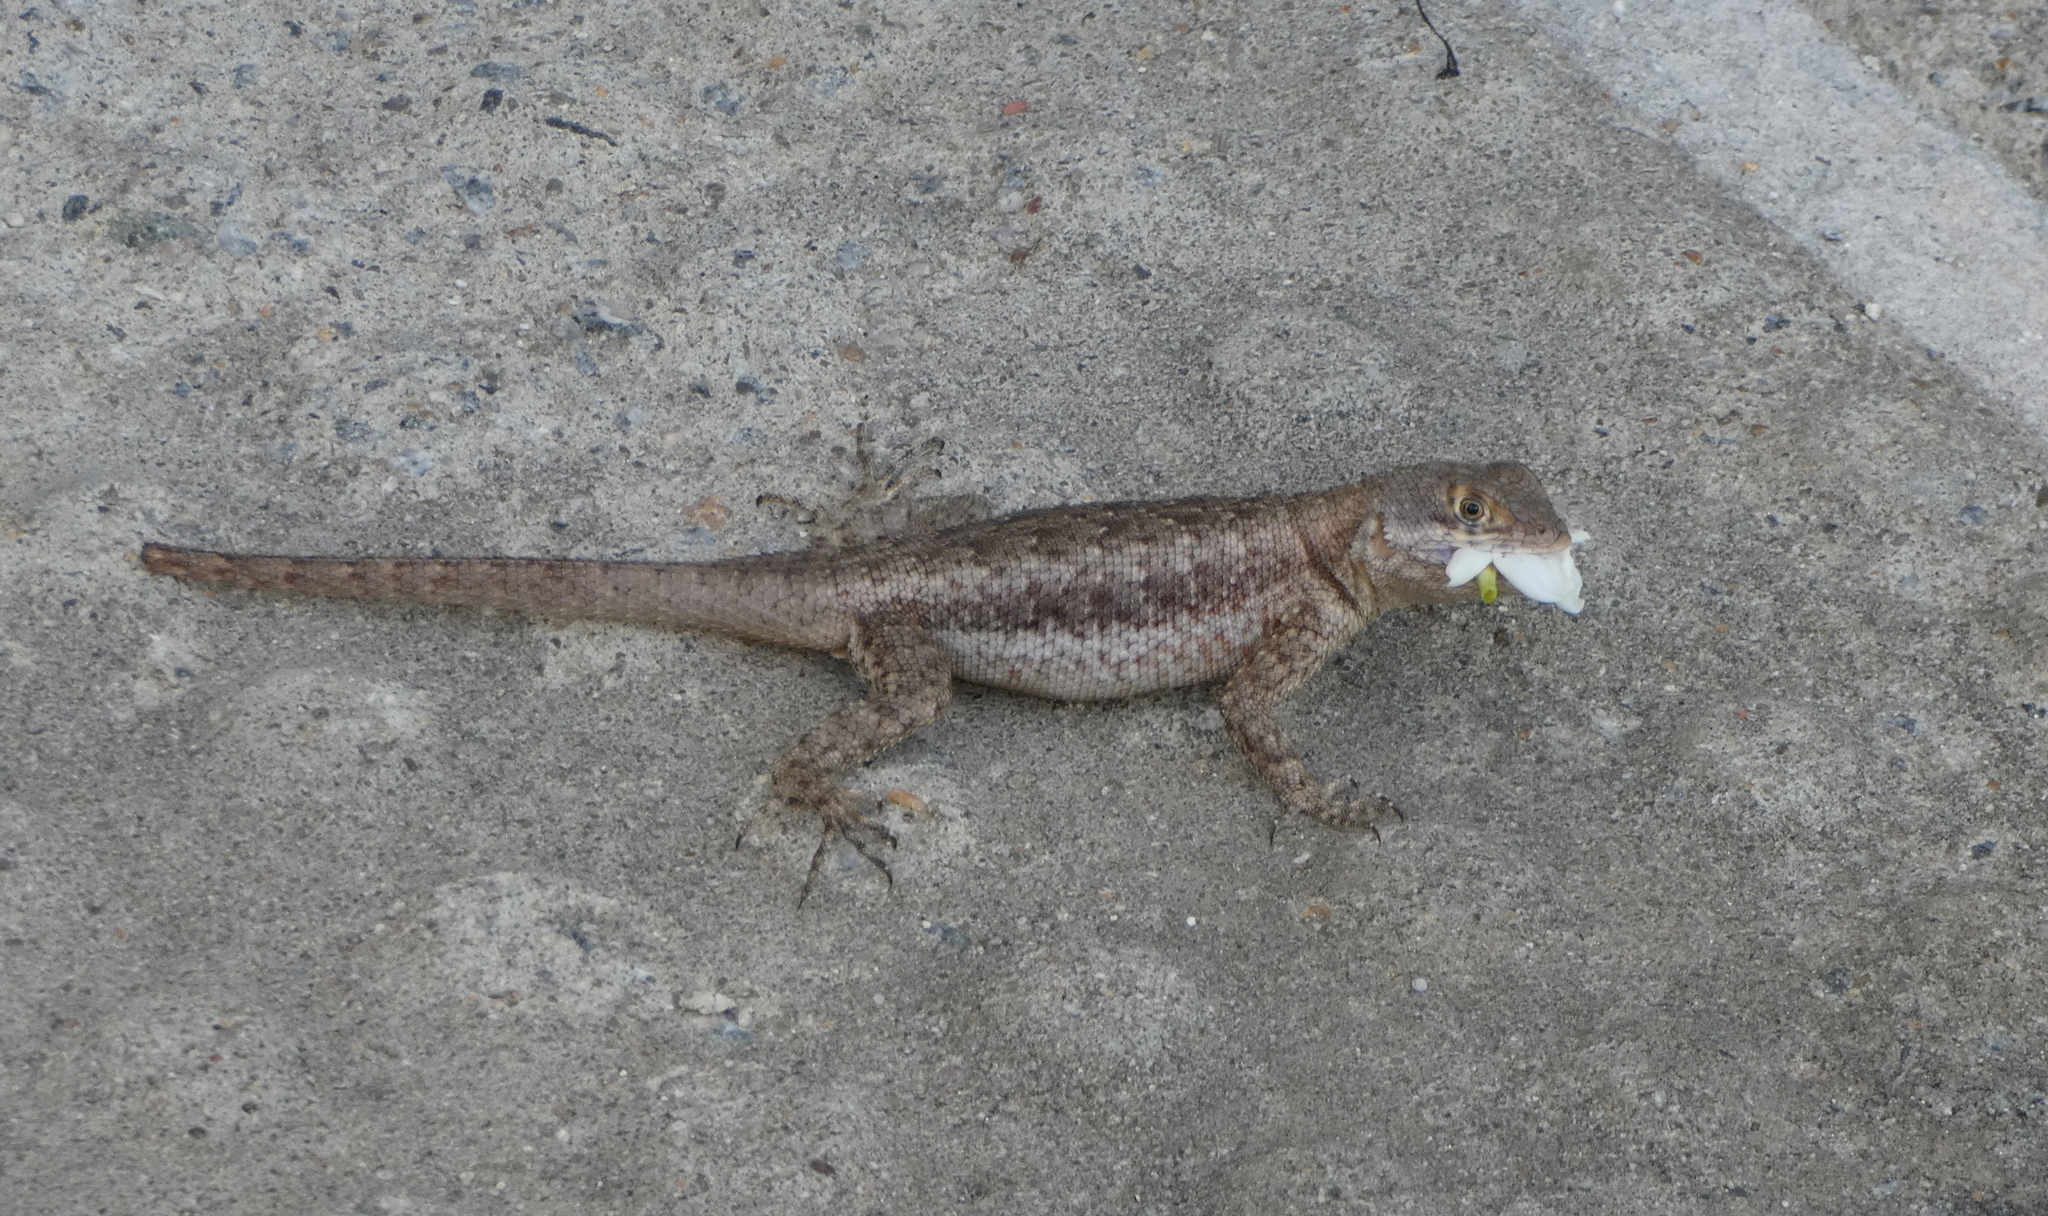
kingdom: Animalia
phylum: Chordata
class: Squamata
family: Tropiduridae
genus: Tropidurus
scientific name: Tropidurus hispidus
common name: Peters' lava lizard
